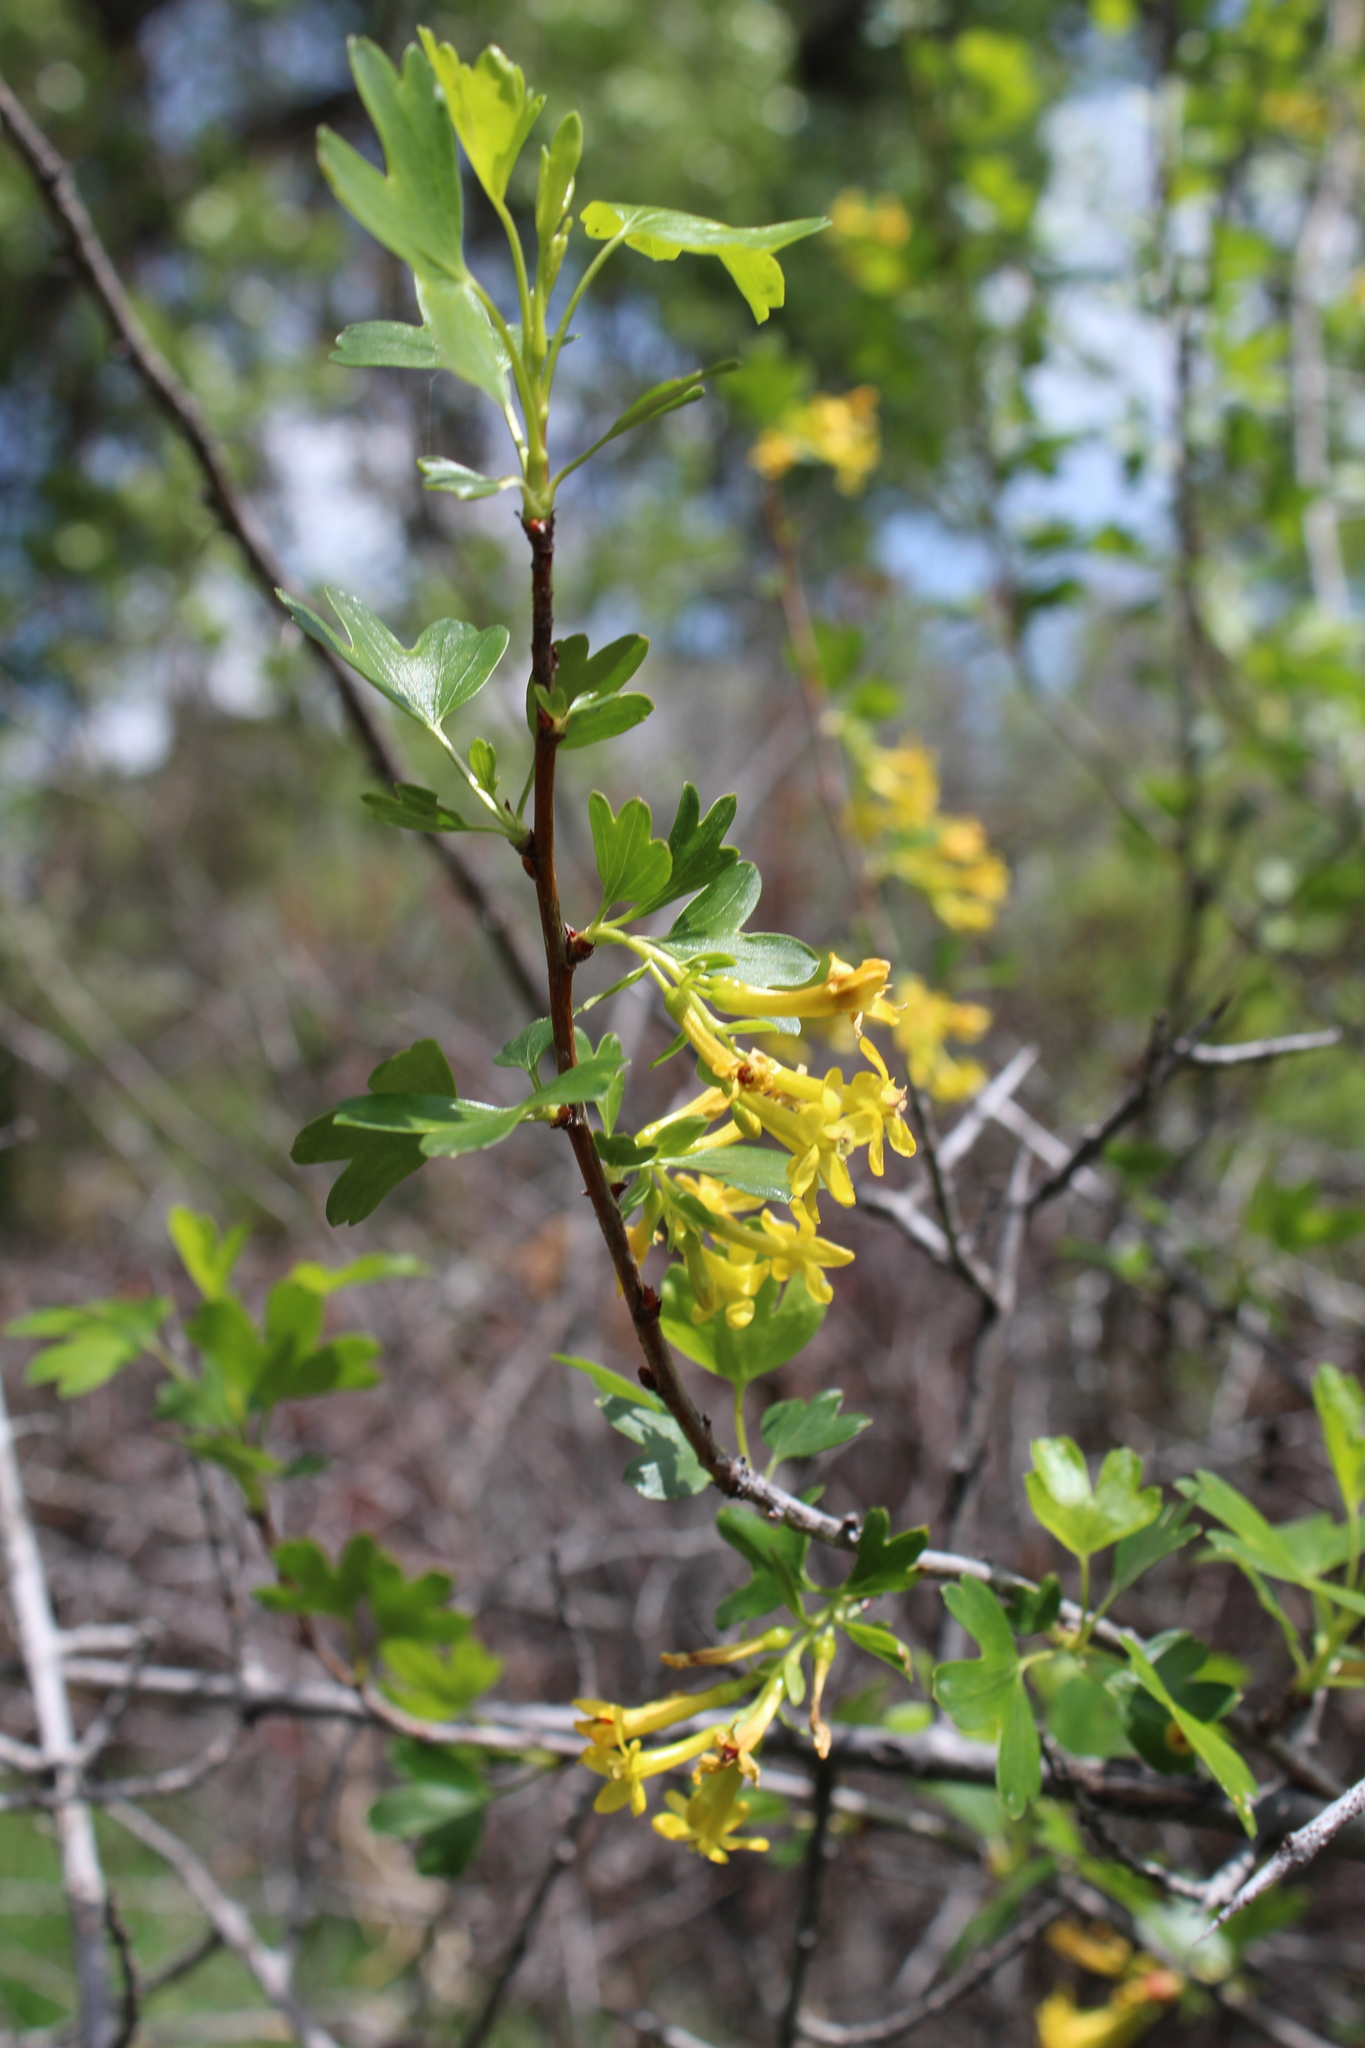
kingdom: Plantae
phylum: Tracheophyta
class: Magnoliopsida
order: Saxifragales
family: Grossulariaceae
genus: Ribes
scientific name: Ribes aureum
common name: Golden currant
